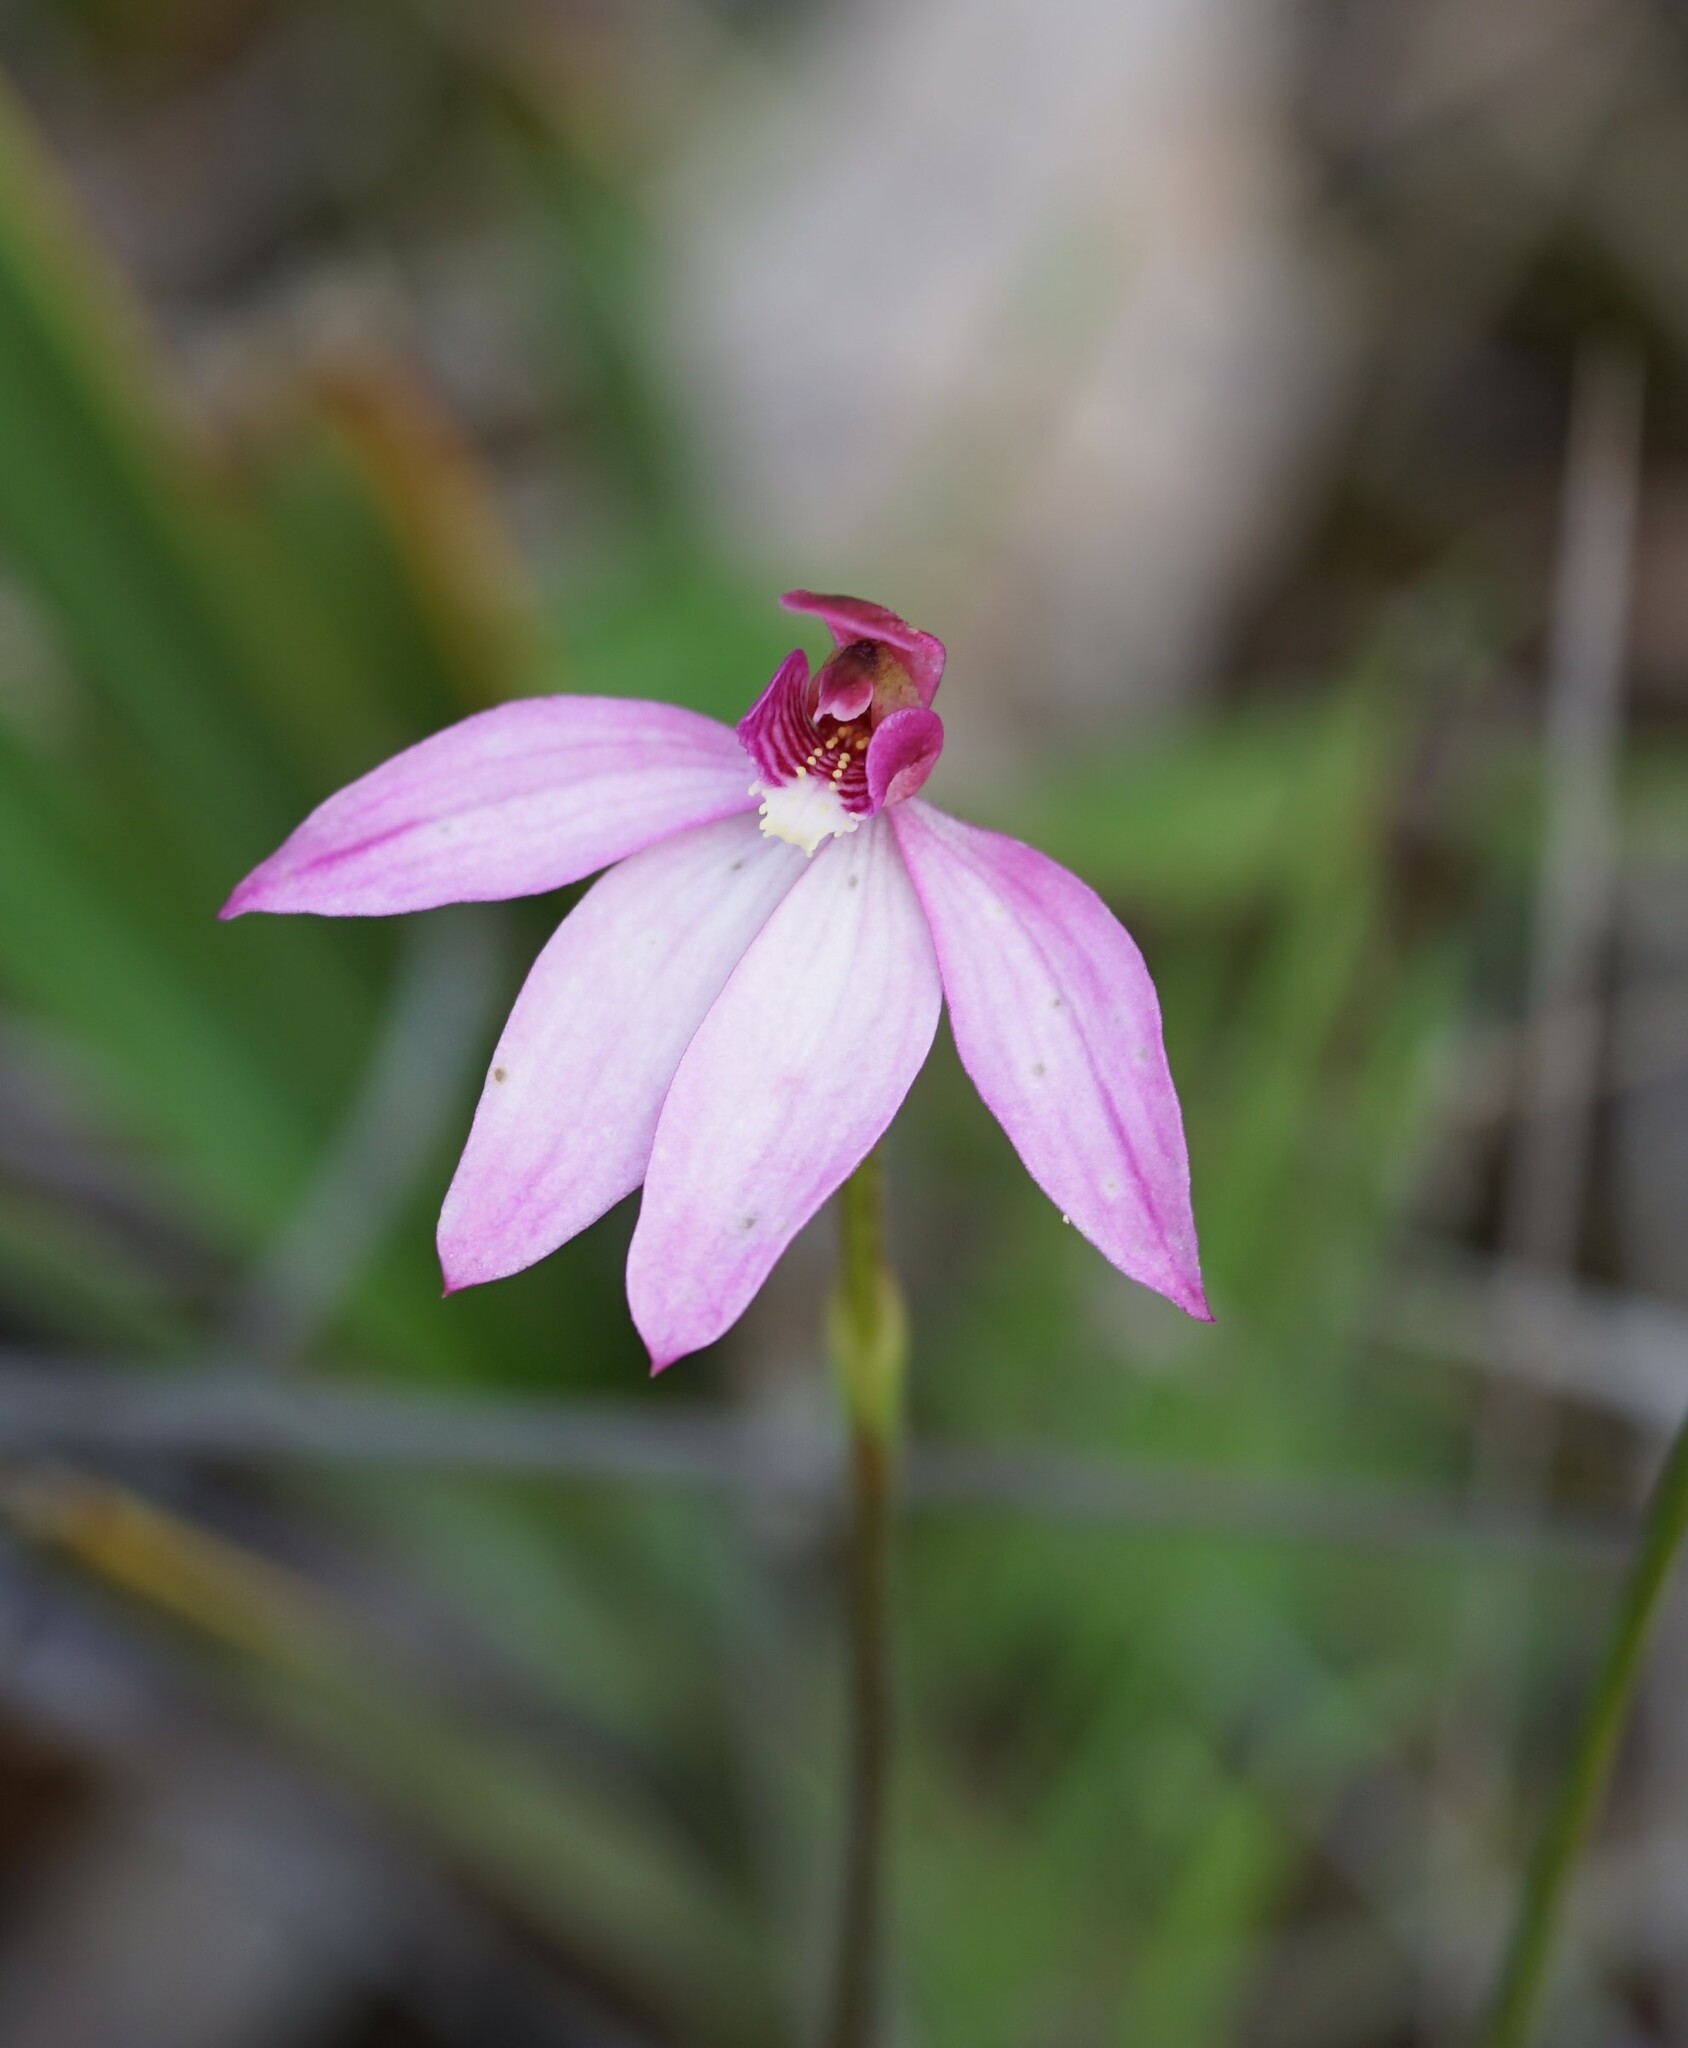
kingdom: Plantae
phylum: Tracheophyta
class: Liliopsida
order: Asparagales
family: Orchidaceae
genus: Caladenia
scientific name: Caladenia ornata
